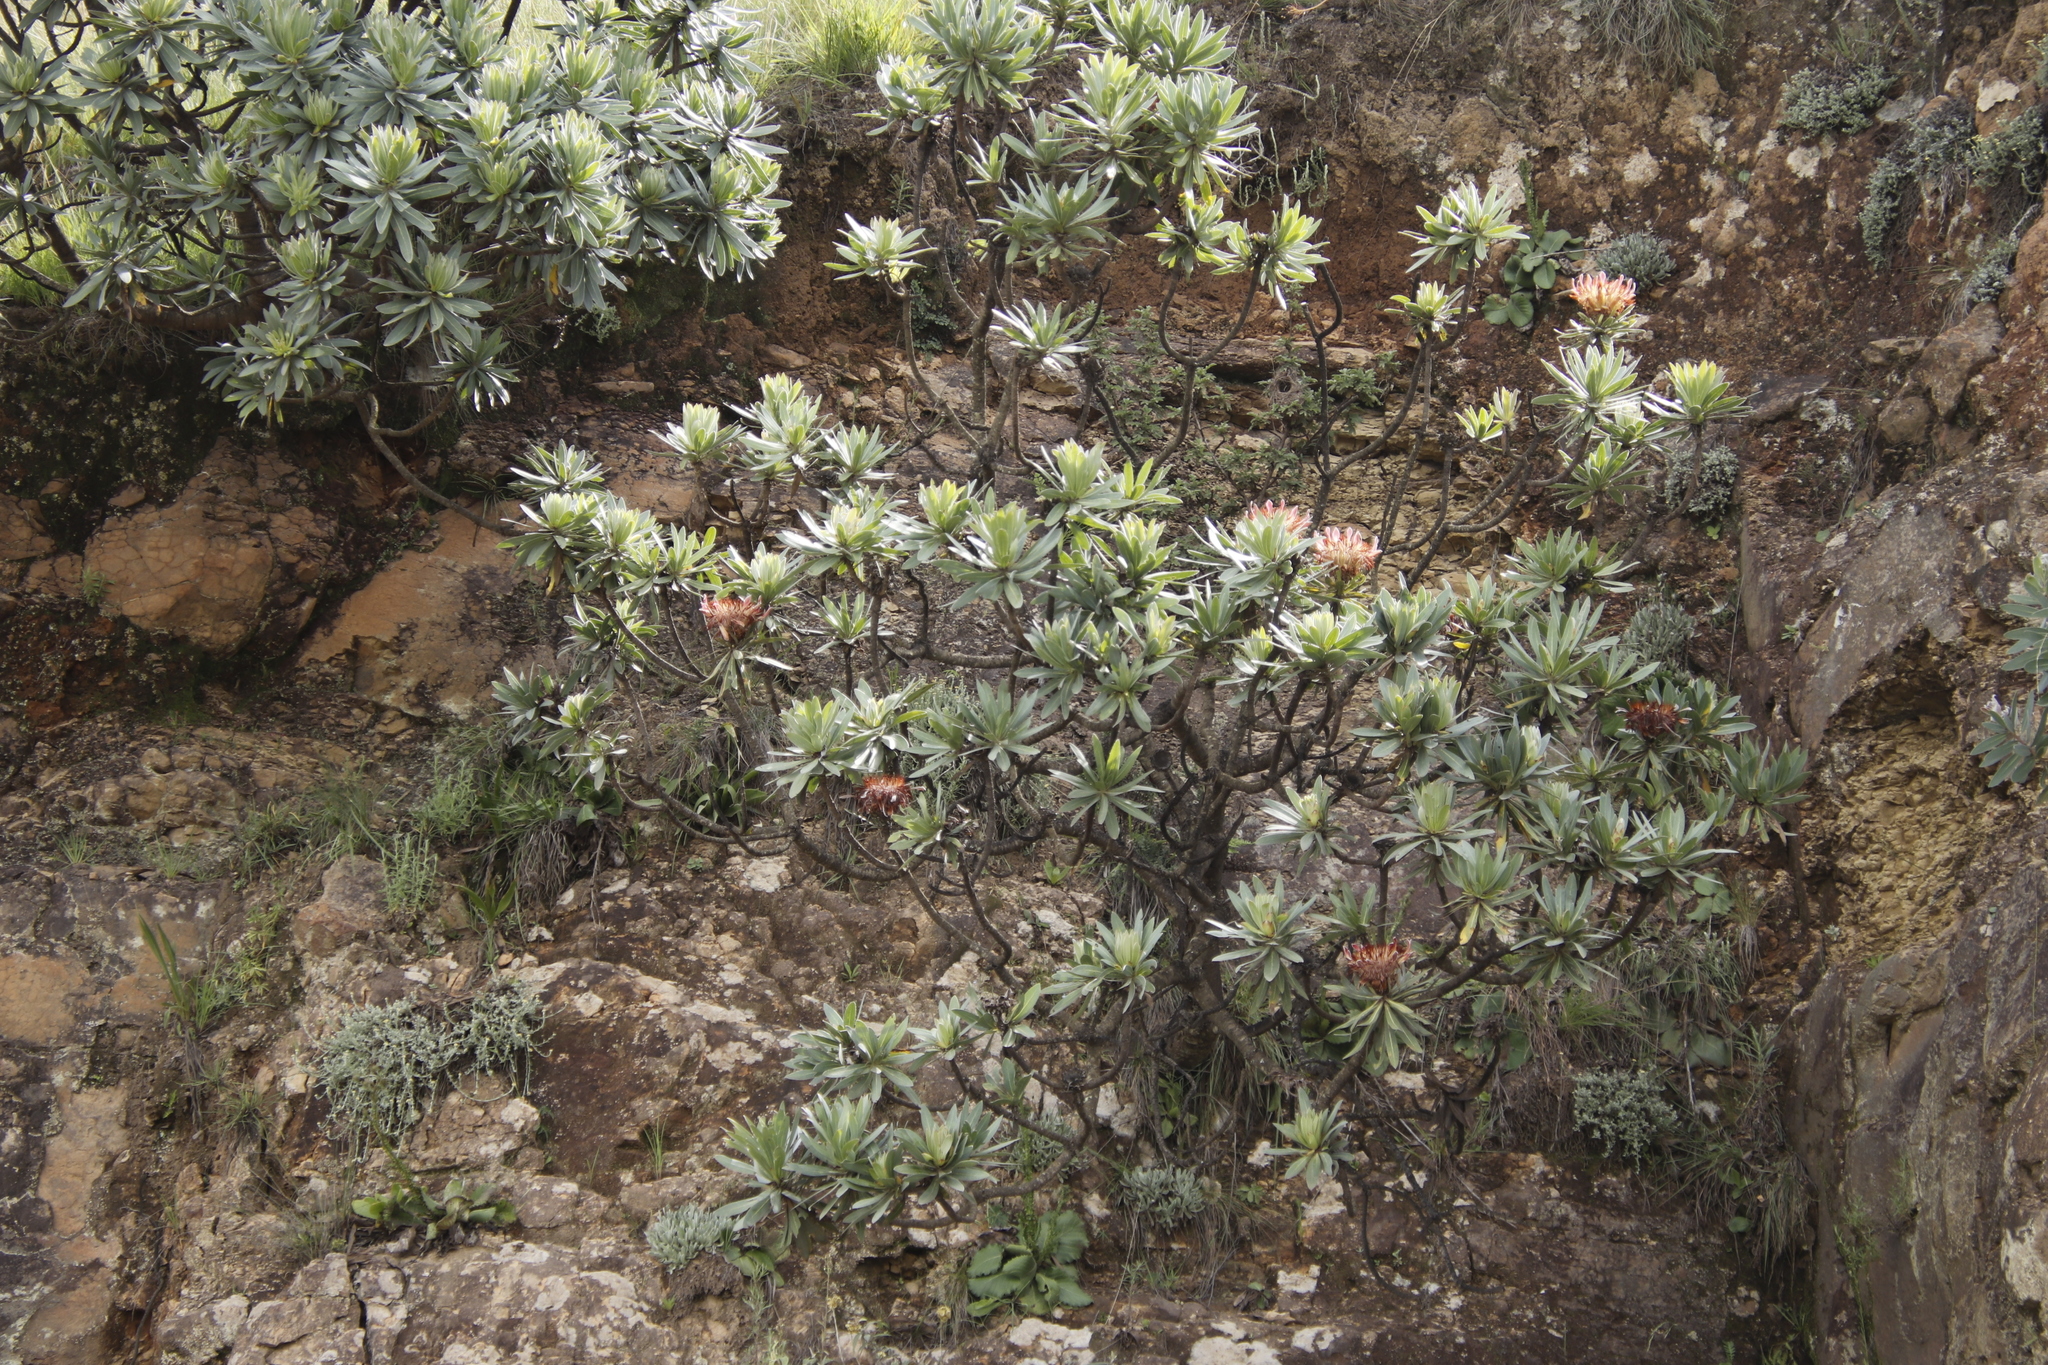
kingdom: Plantae
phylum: Tracheophyta
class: Magnoliopsida
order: Proteales
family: Proteaceae
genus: Protea
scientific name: Protea roupelliae
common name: Silver sugarbush
